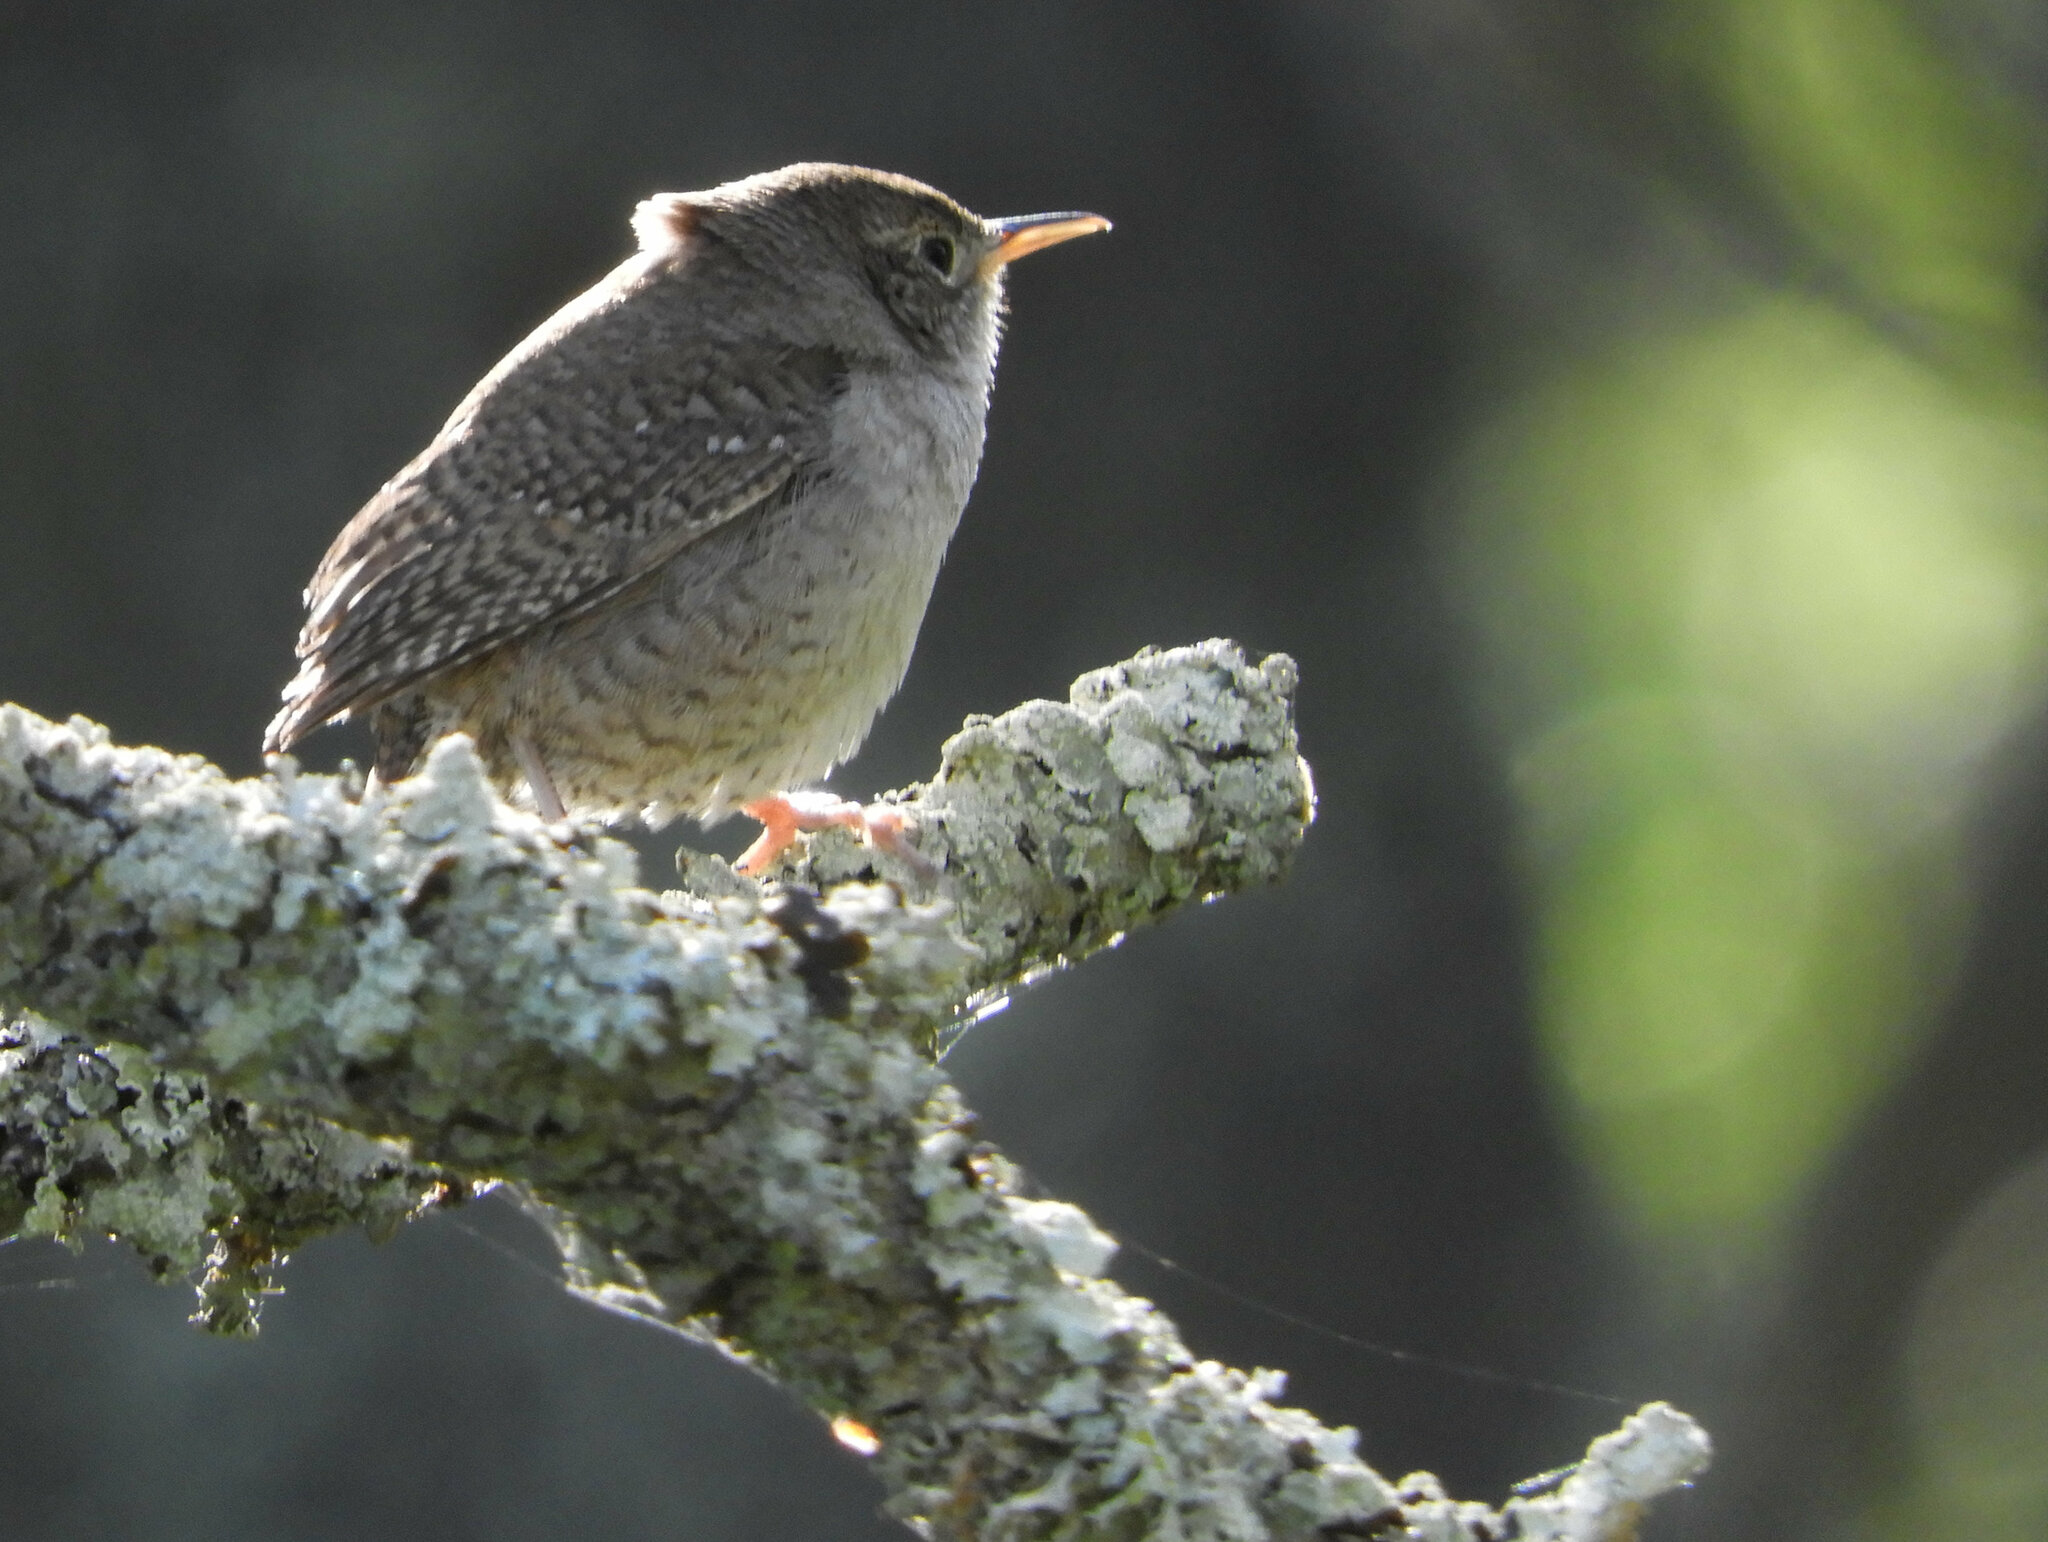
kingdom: Animalia
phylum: Chordata
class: Aves
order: Passeriformes
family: Troglodytidae
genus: Troglodytes
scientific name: Troglodytes aedon
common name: House wren
